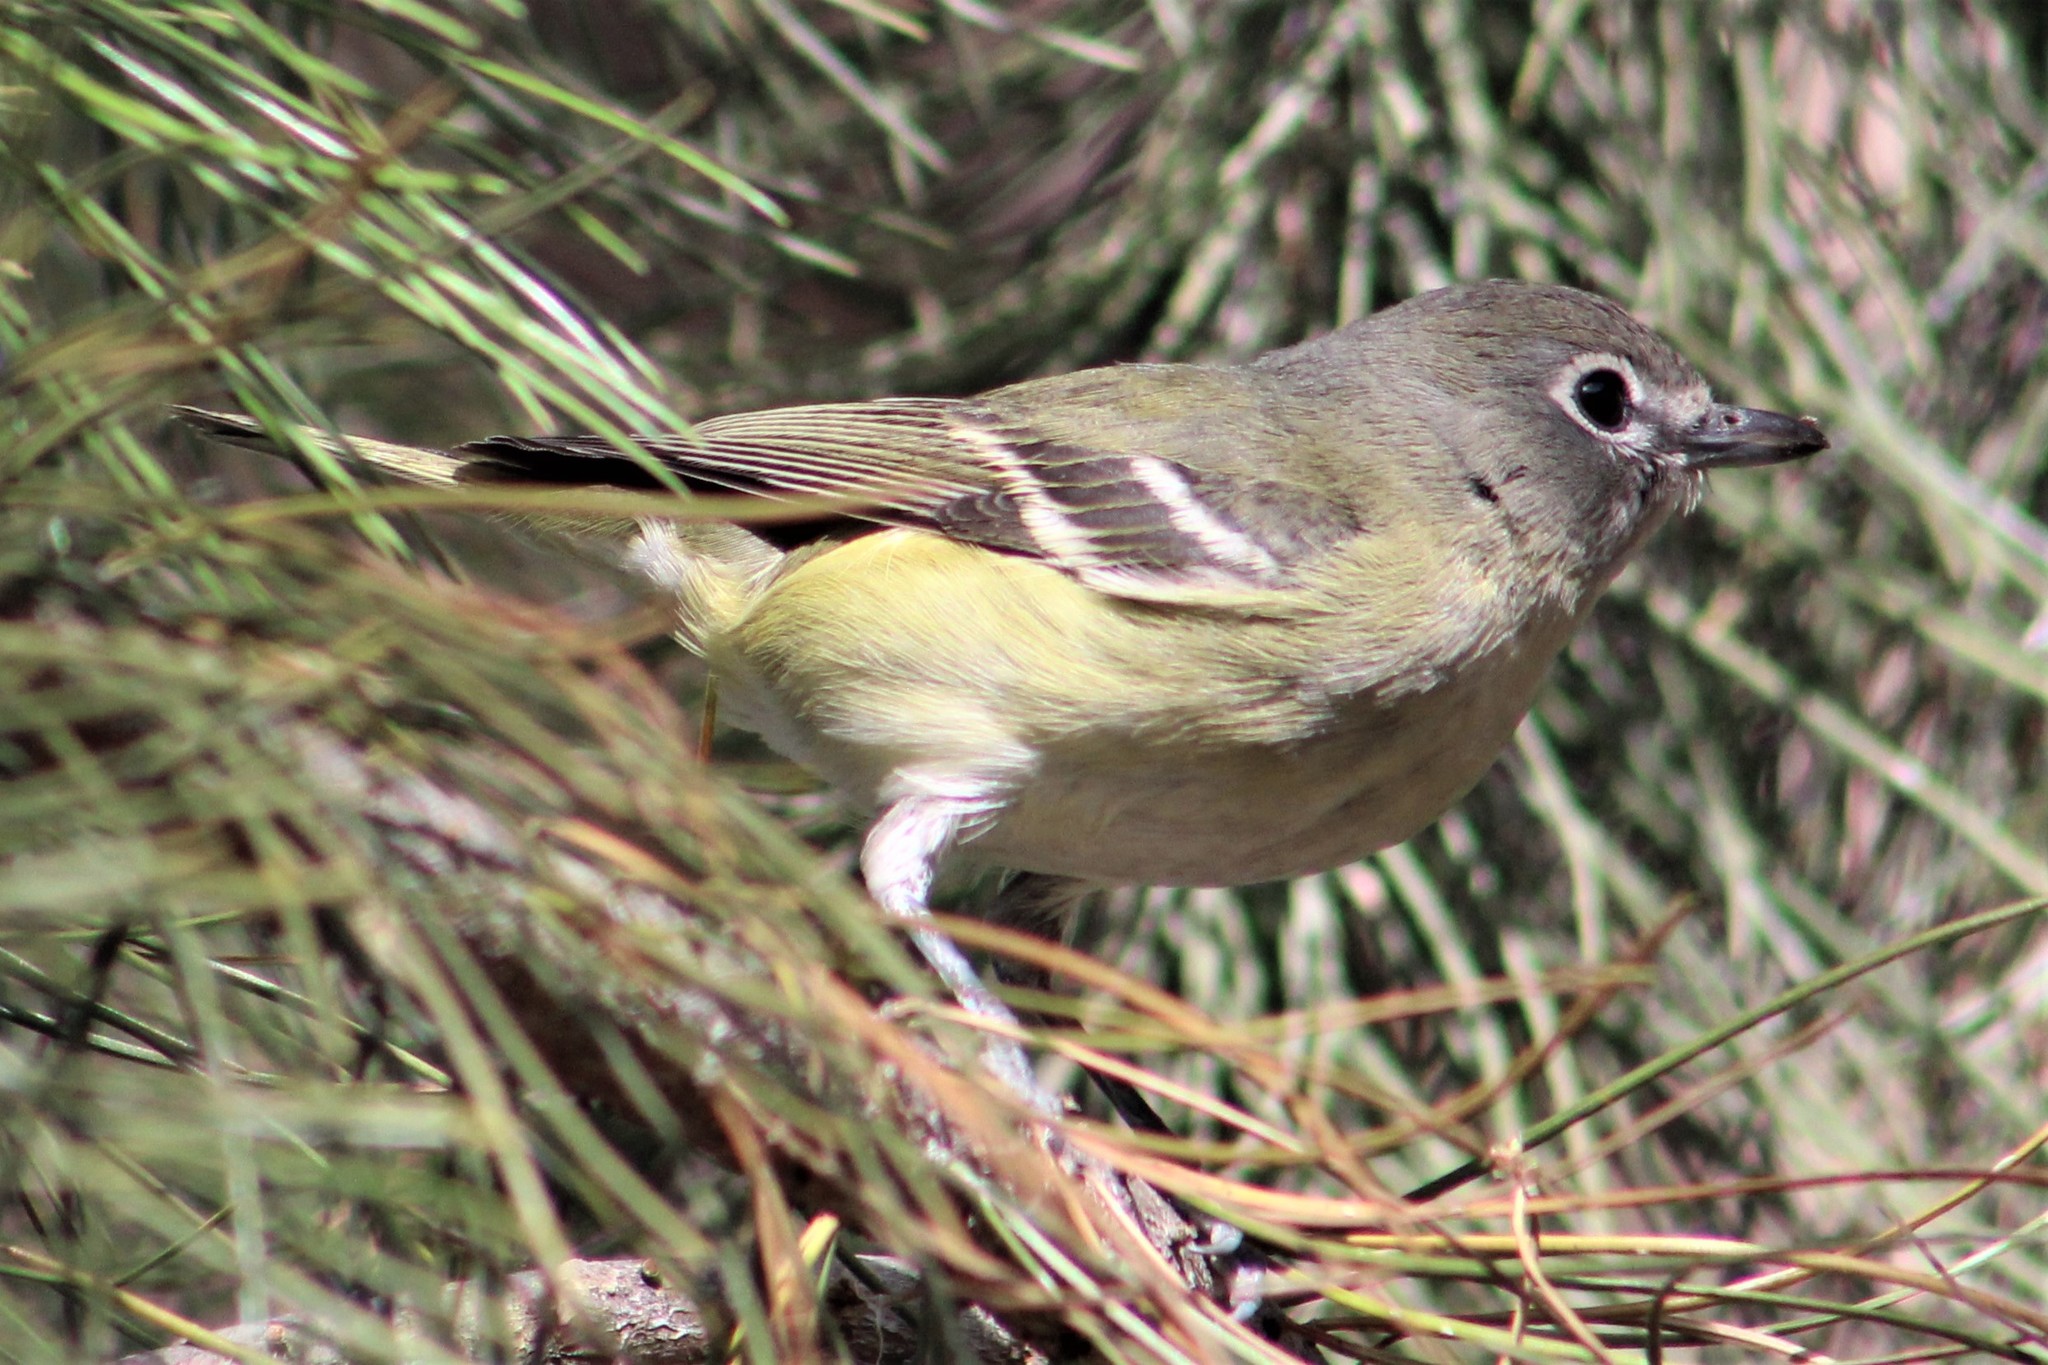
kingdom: Animalia
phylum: Chordata
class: Aves
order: Passeriformes
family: Vireonidae
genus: Vireo
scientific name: Vireo cassinii
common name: Cassin's vireo
